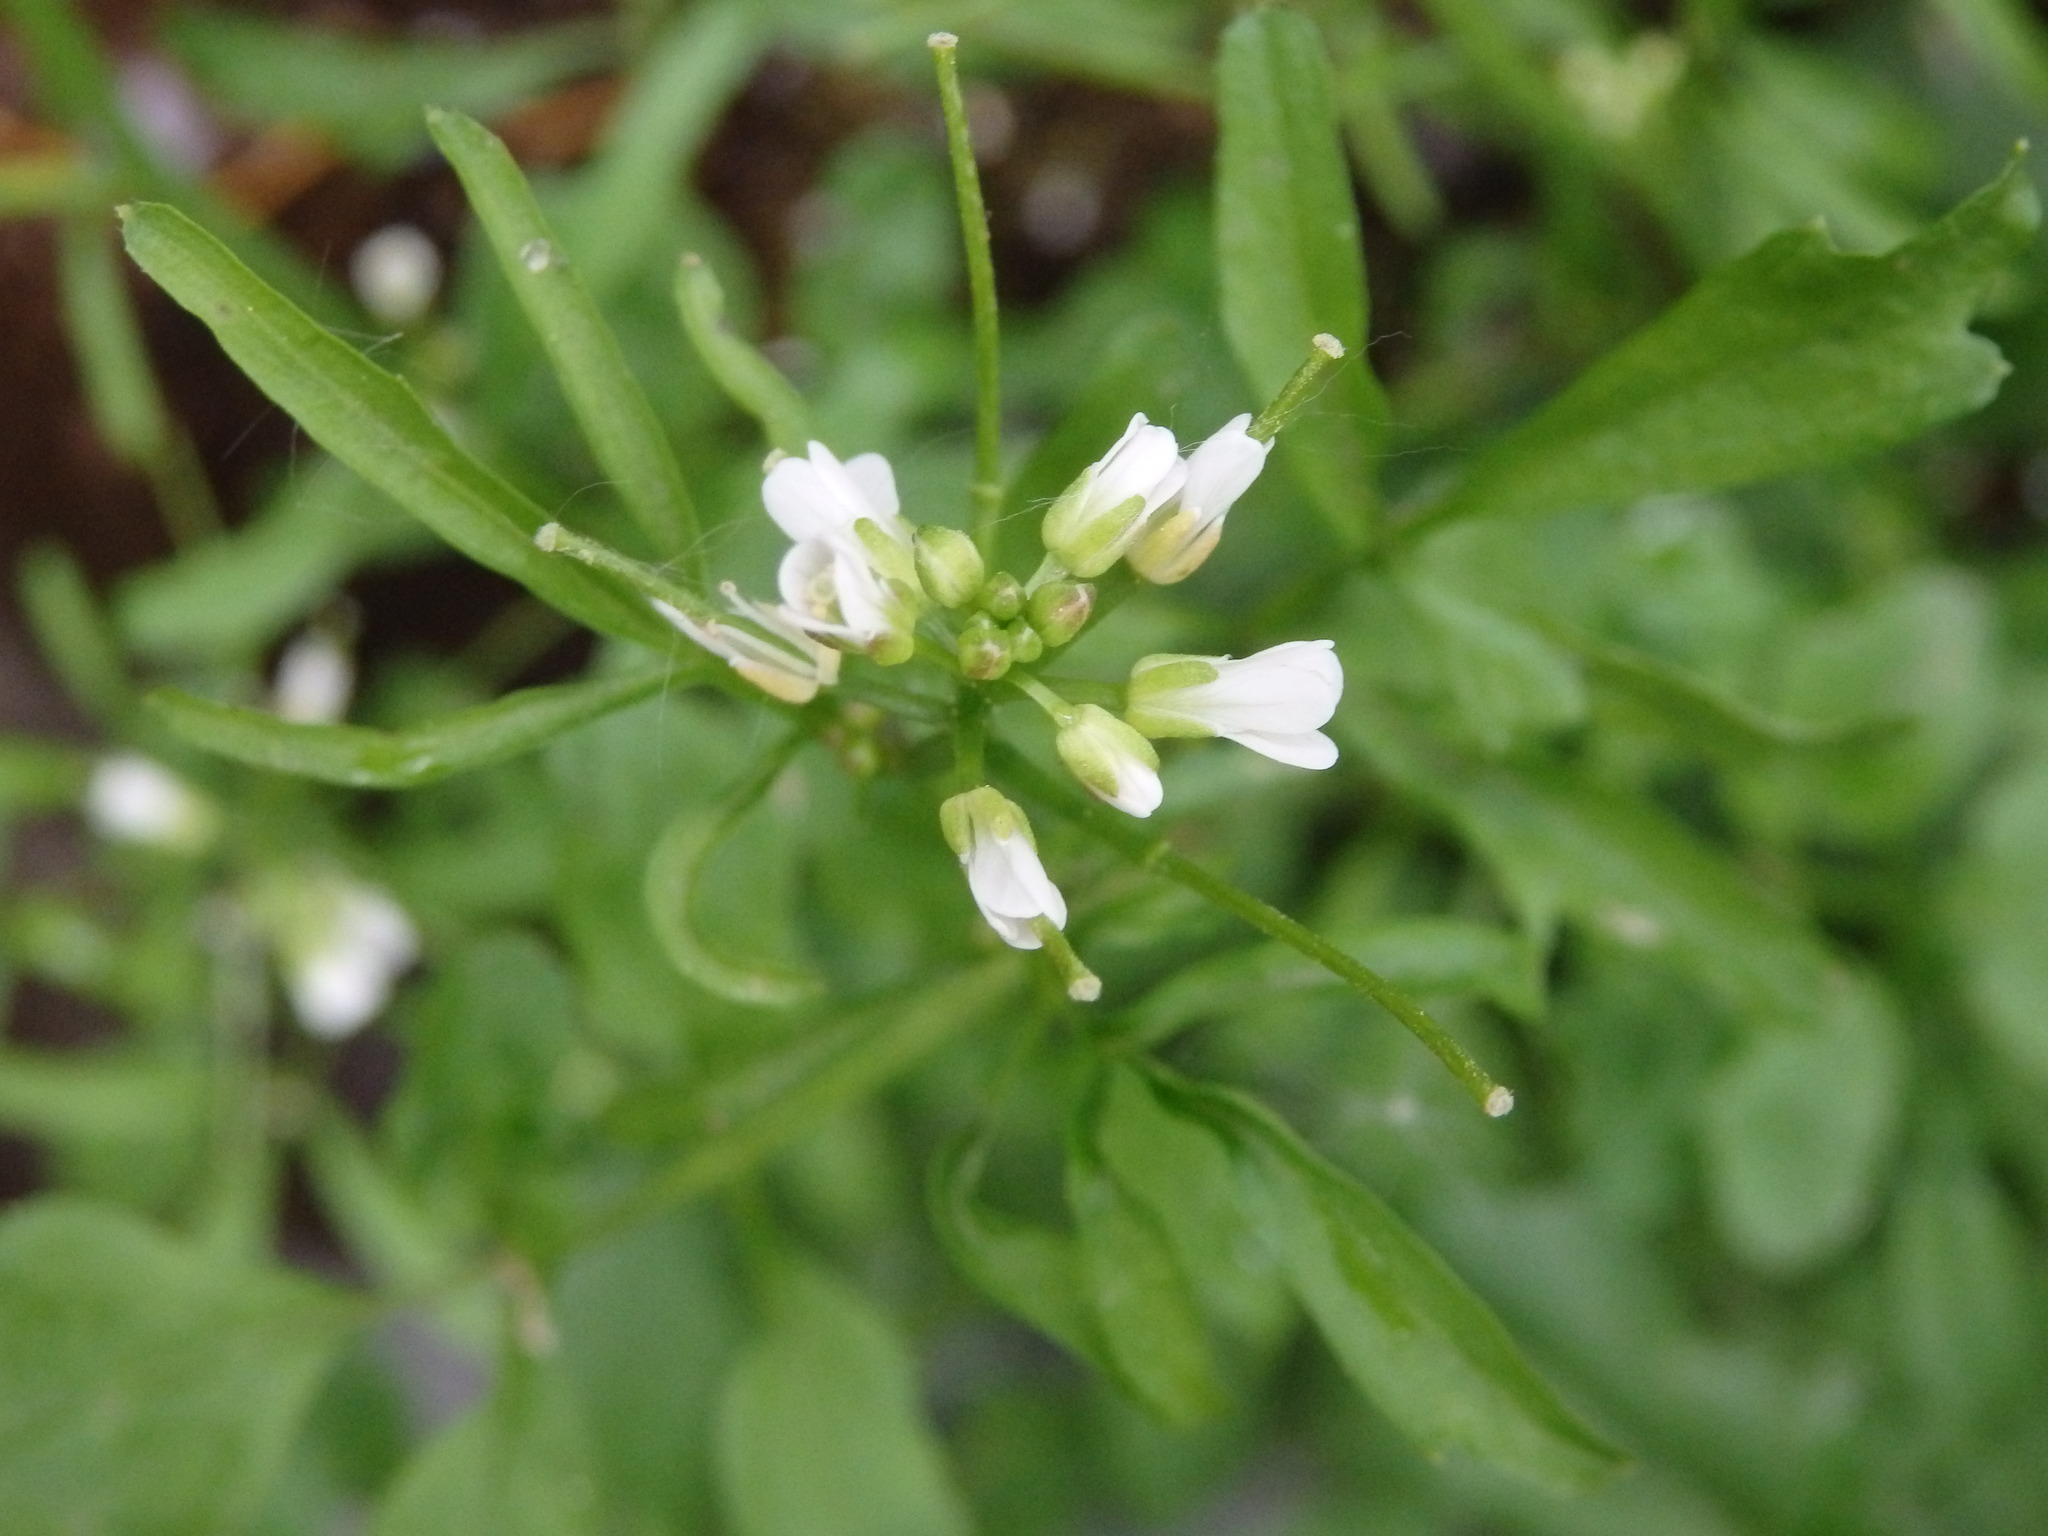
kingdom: Plantae
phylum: Tracheophyta
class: Magnoliopsida
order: Brassicales
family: Brassicaceae
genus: Cardamine
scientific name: Cardamine flexuosa
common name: Woodland bittercress
